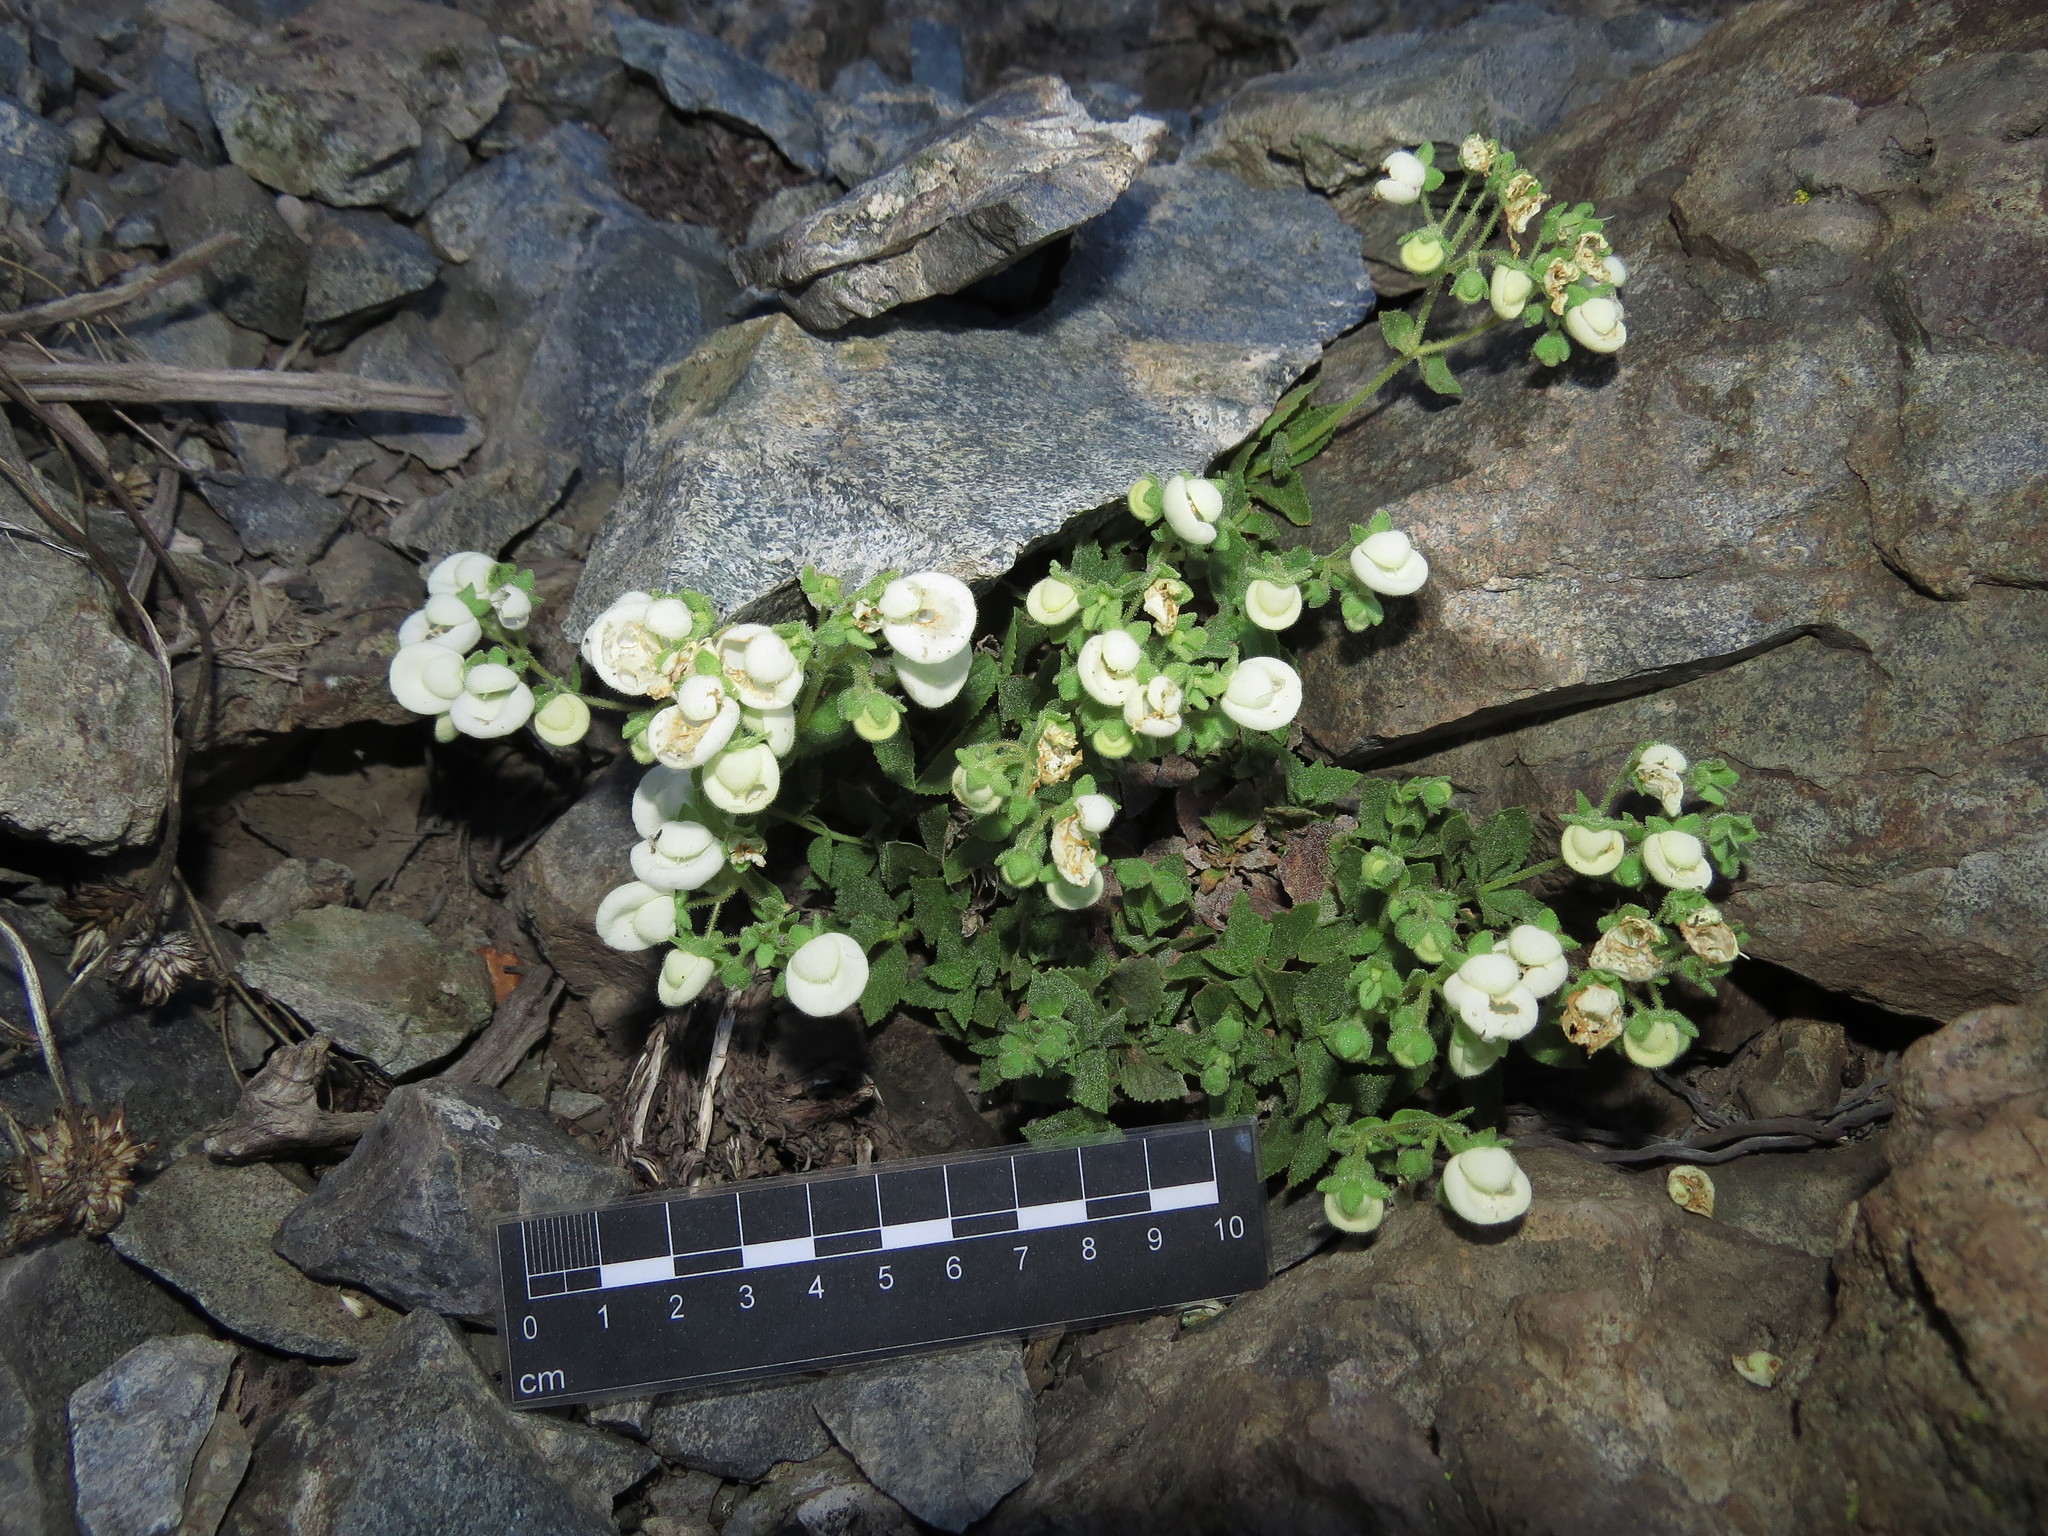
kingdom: Plantae
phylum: Tracheophyta
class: Magnoliopsida
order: Lamiales
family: Calceolariaceae
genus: Calceolaria
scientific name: Calceolaria nitida
